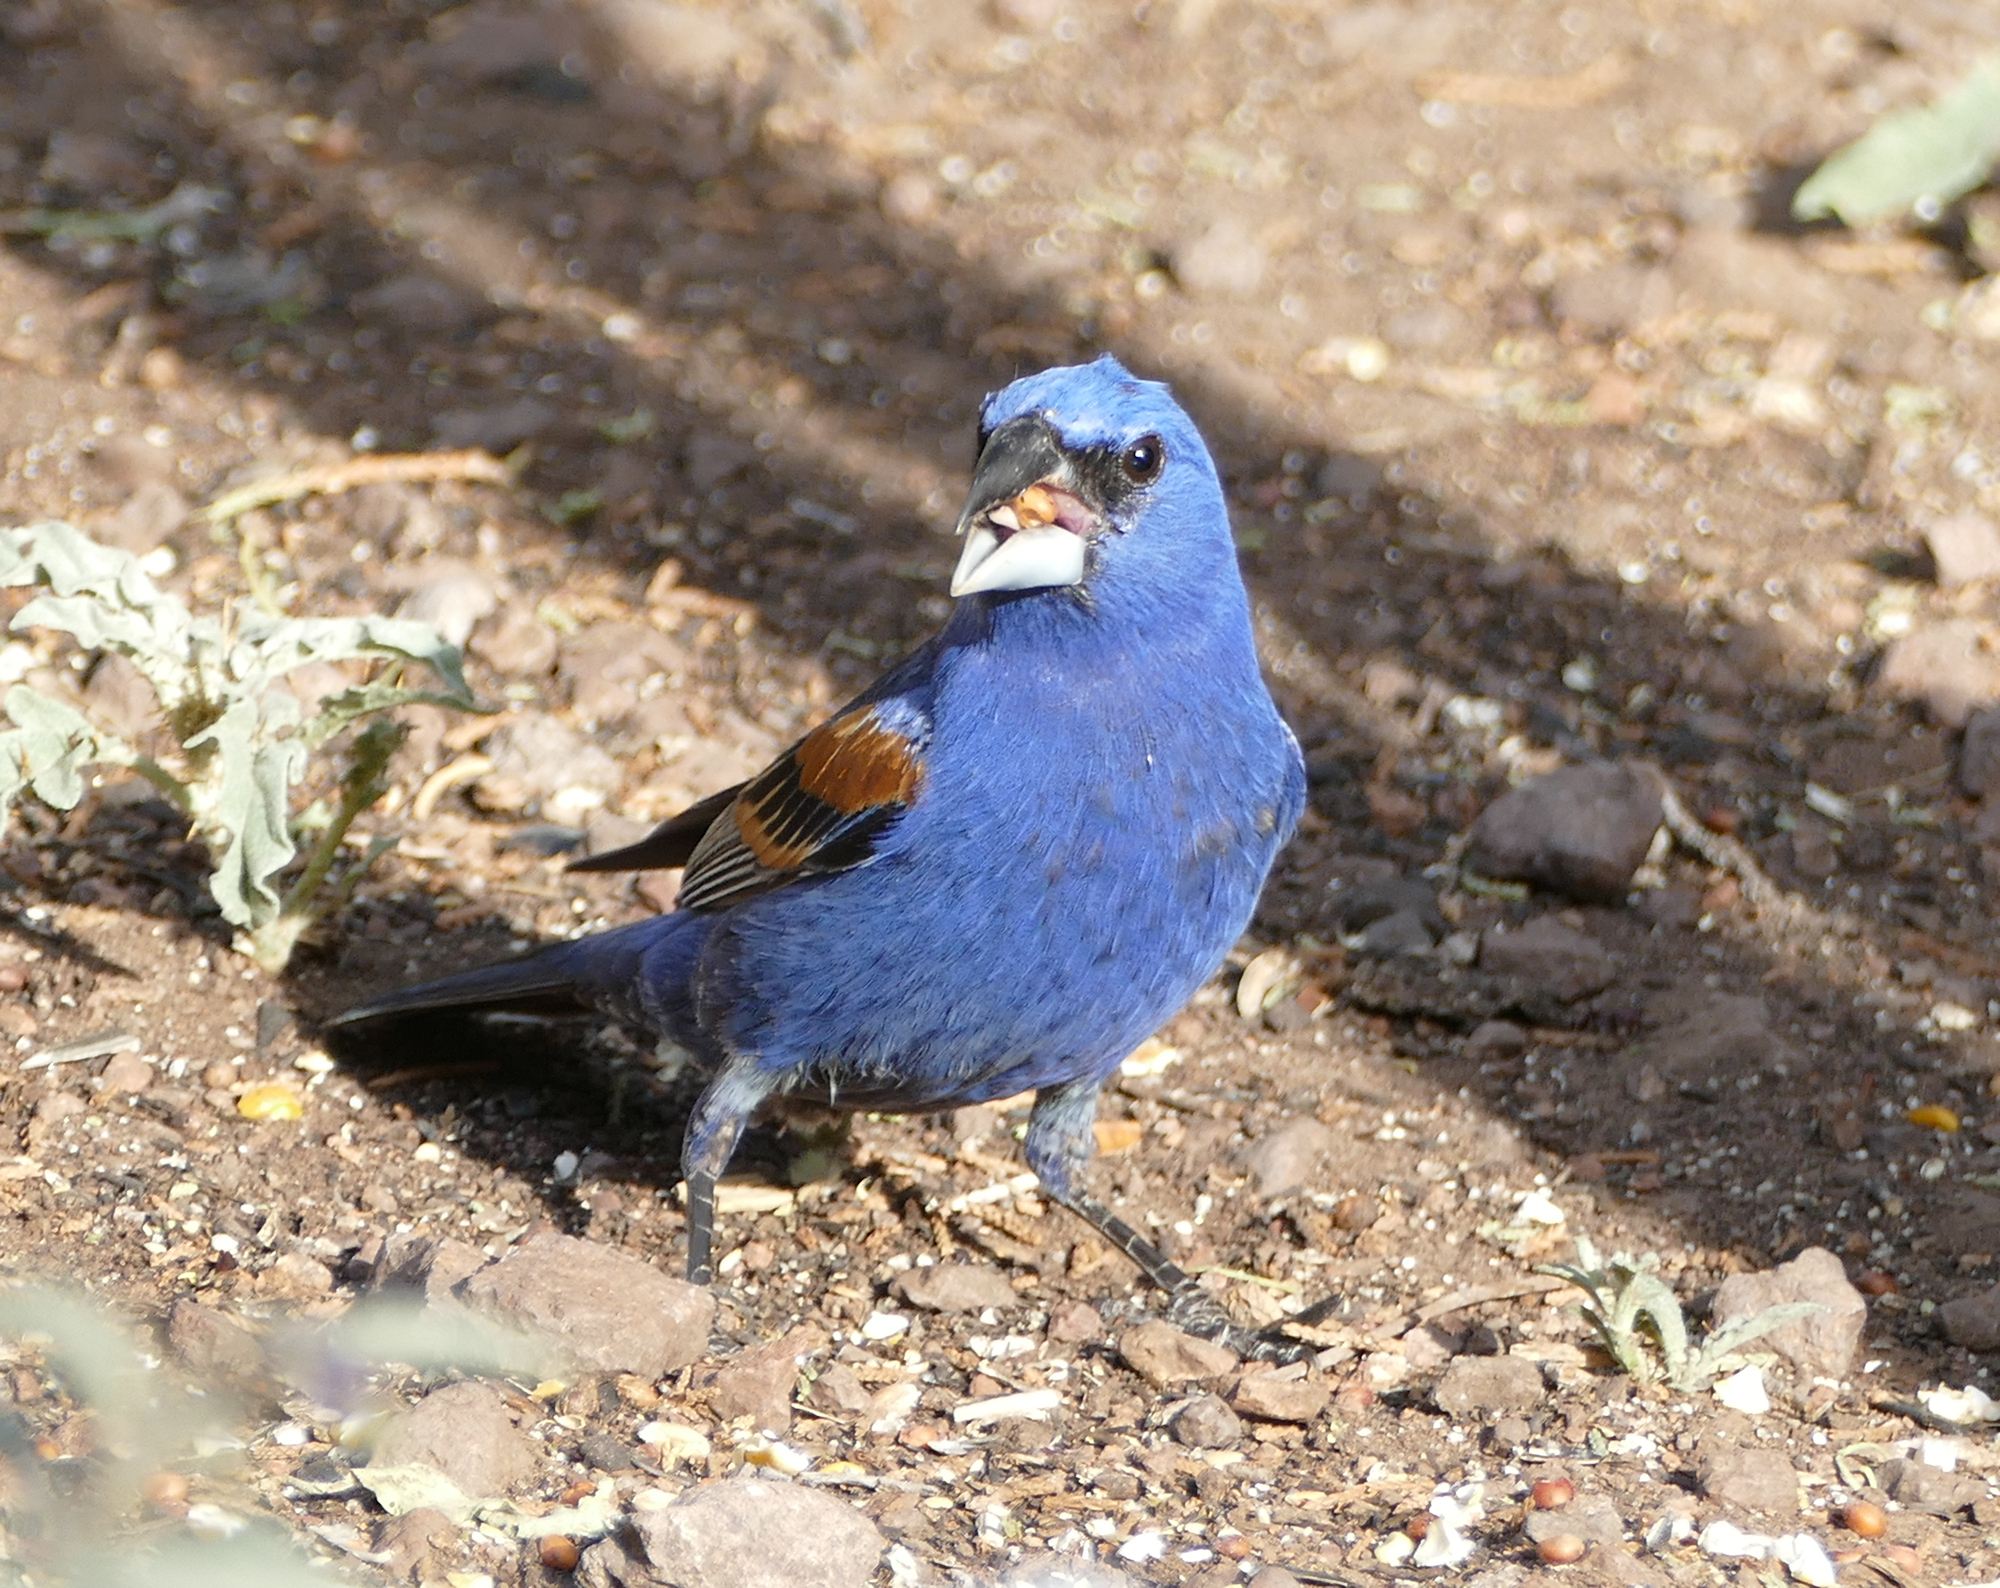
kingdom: Animalia
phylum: Chordata
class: Aves
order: Passeriformes
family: Cardinalidae
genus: Passerina
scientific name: Passerina caerulea
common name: Blue grosbeak
